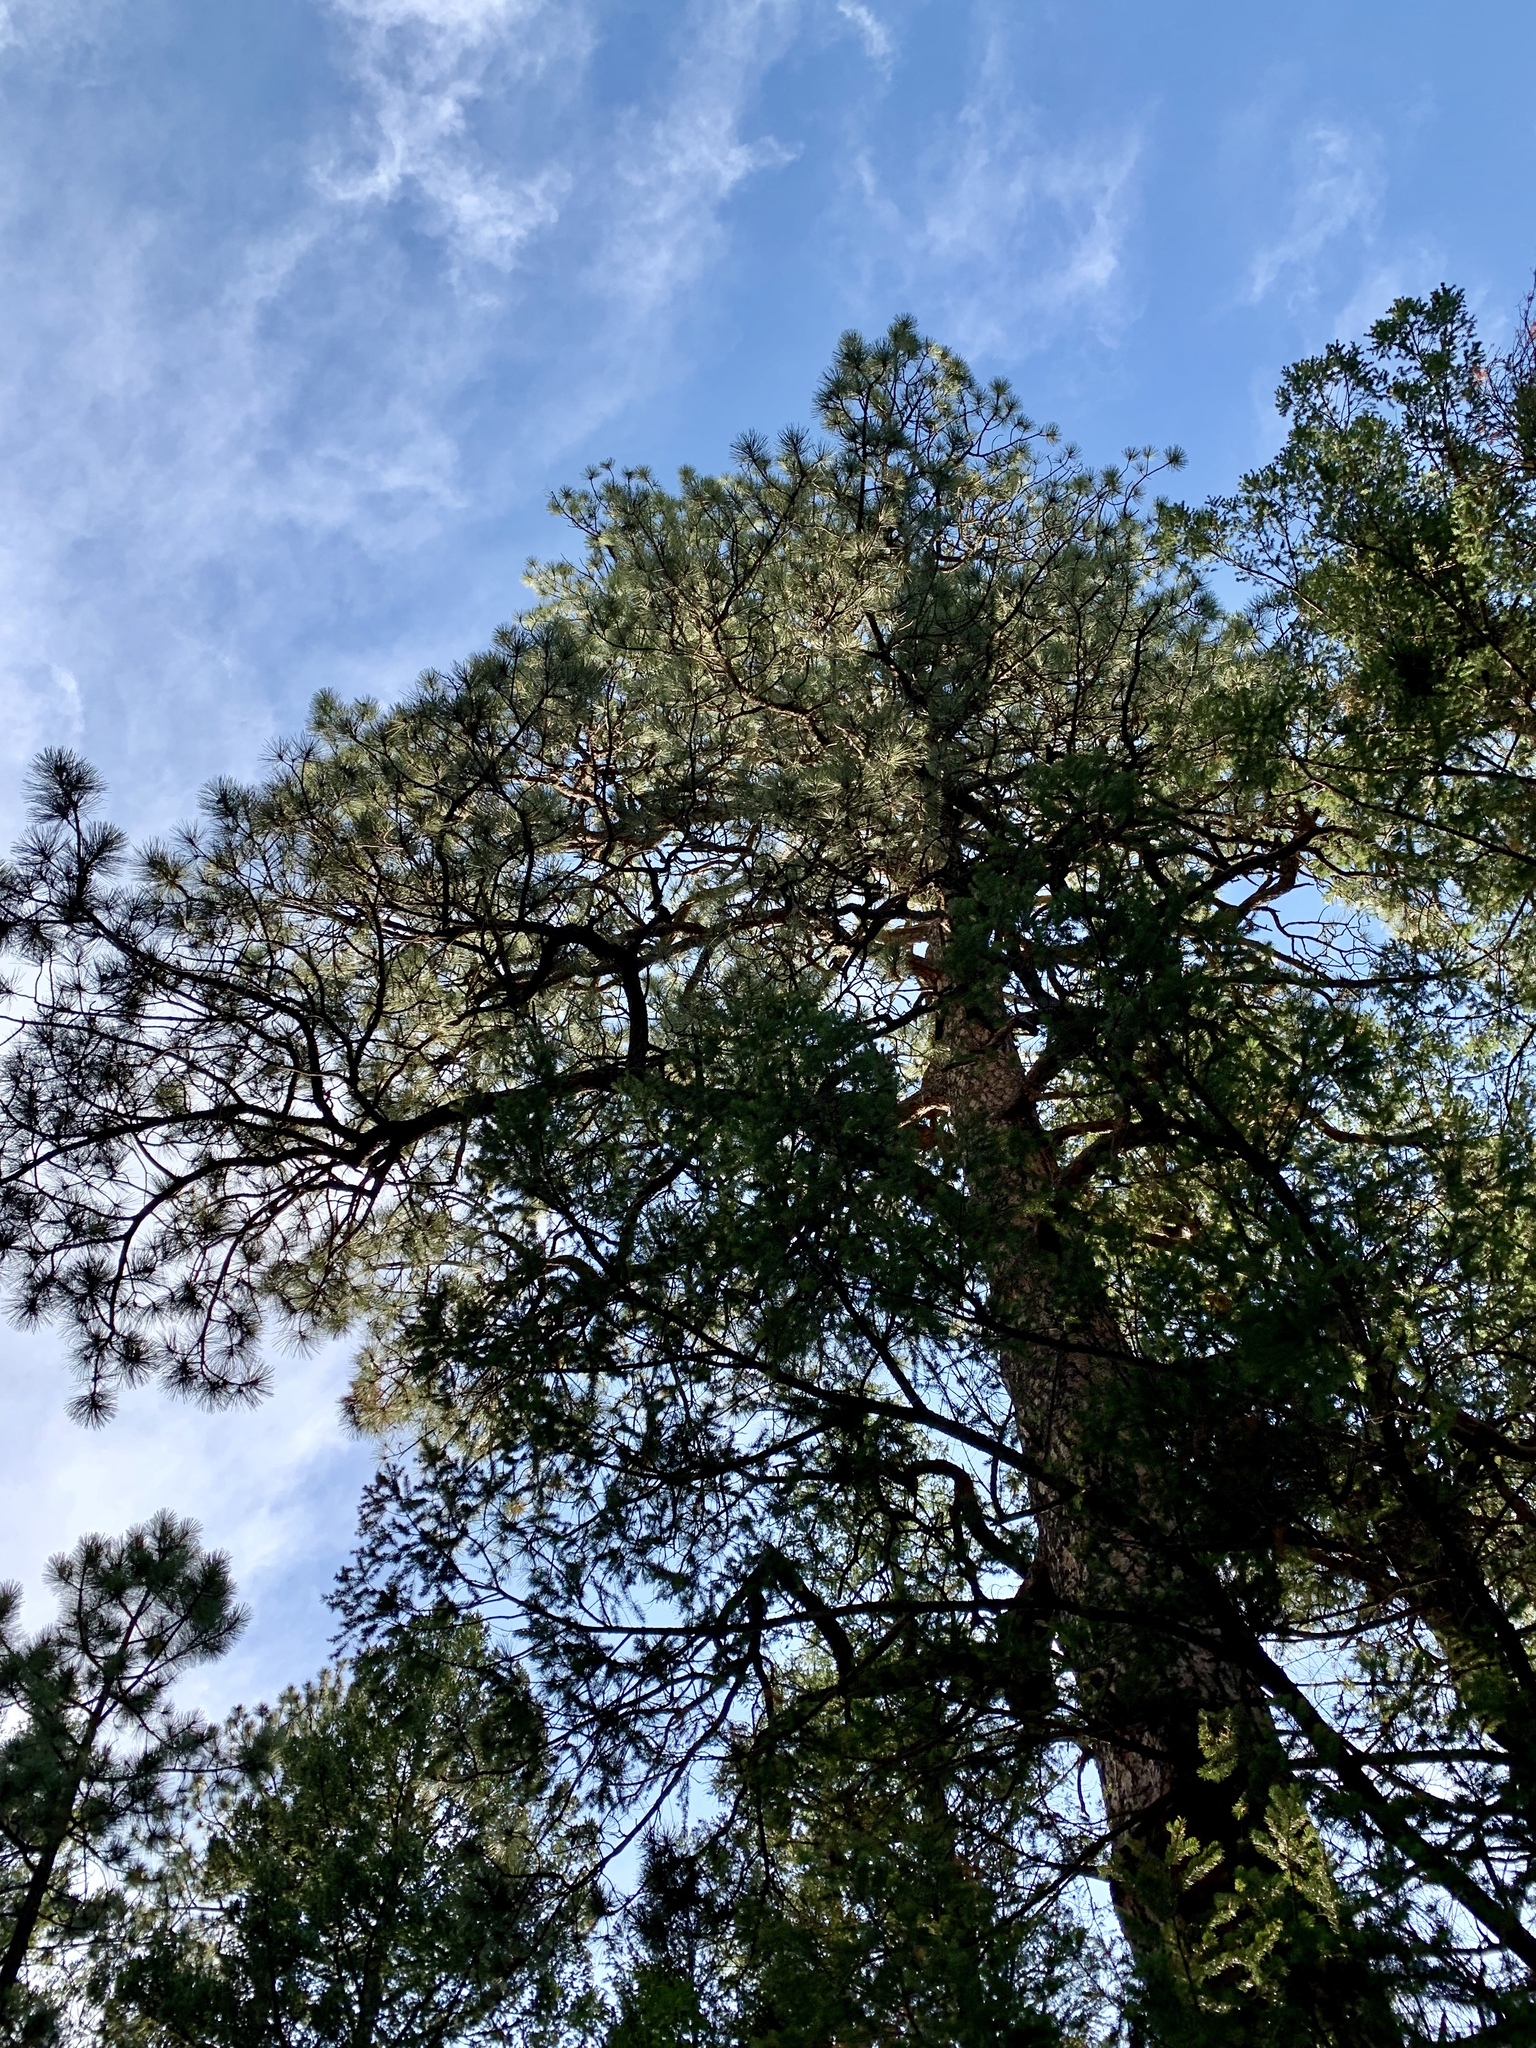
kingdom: Plantae
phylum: Tracheophyta
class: Pinopsida
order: Pinales
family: Pinaceae
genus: Pinus
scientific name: Pinus ponderosa
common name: Western yellow-pine
